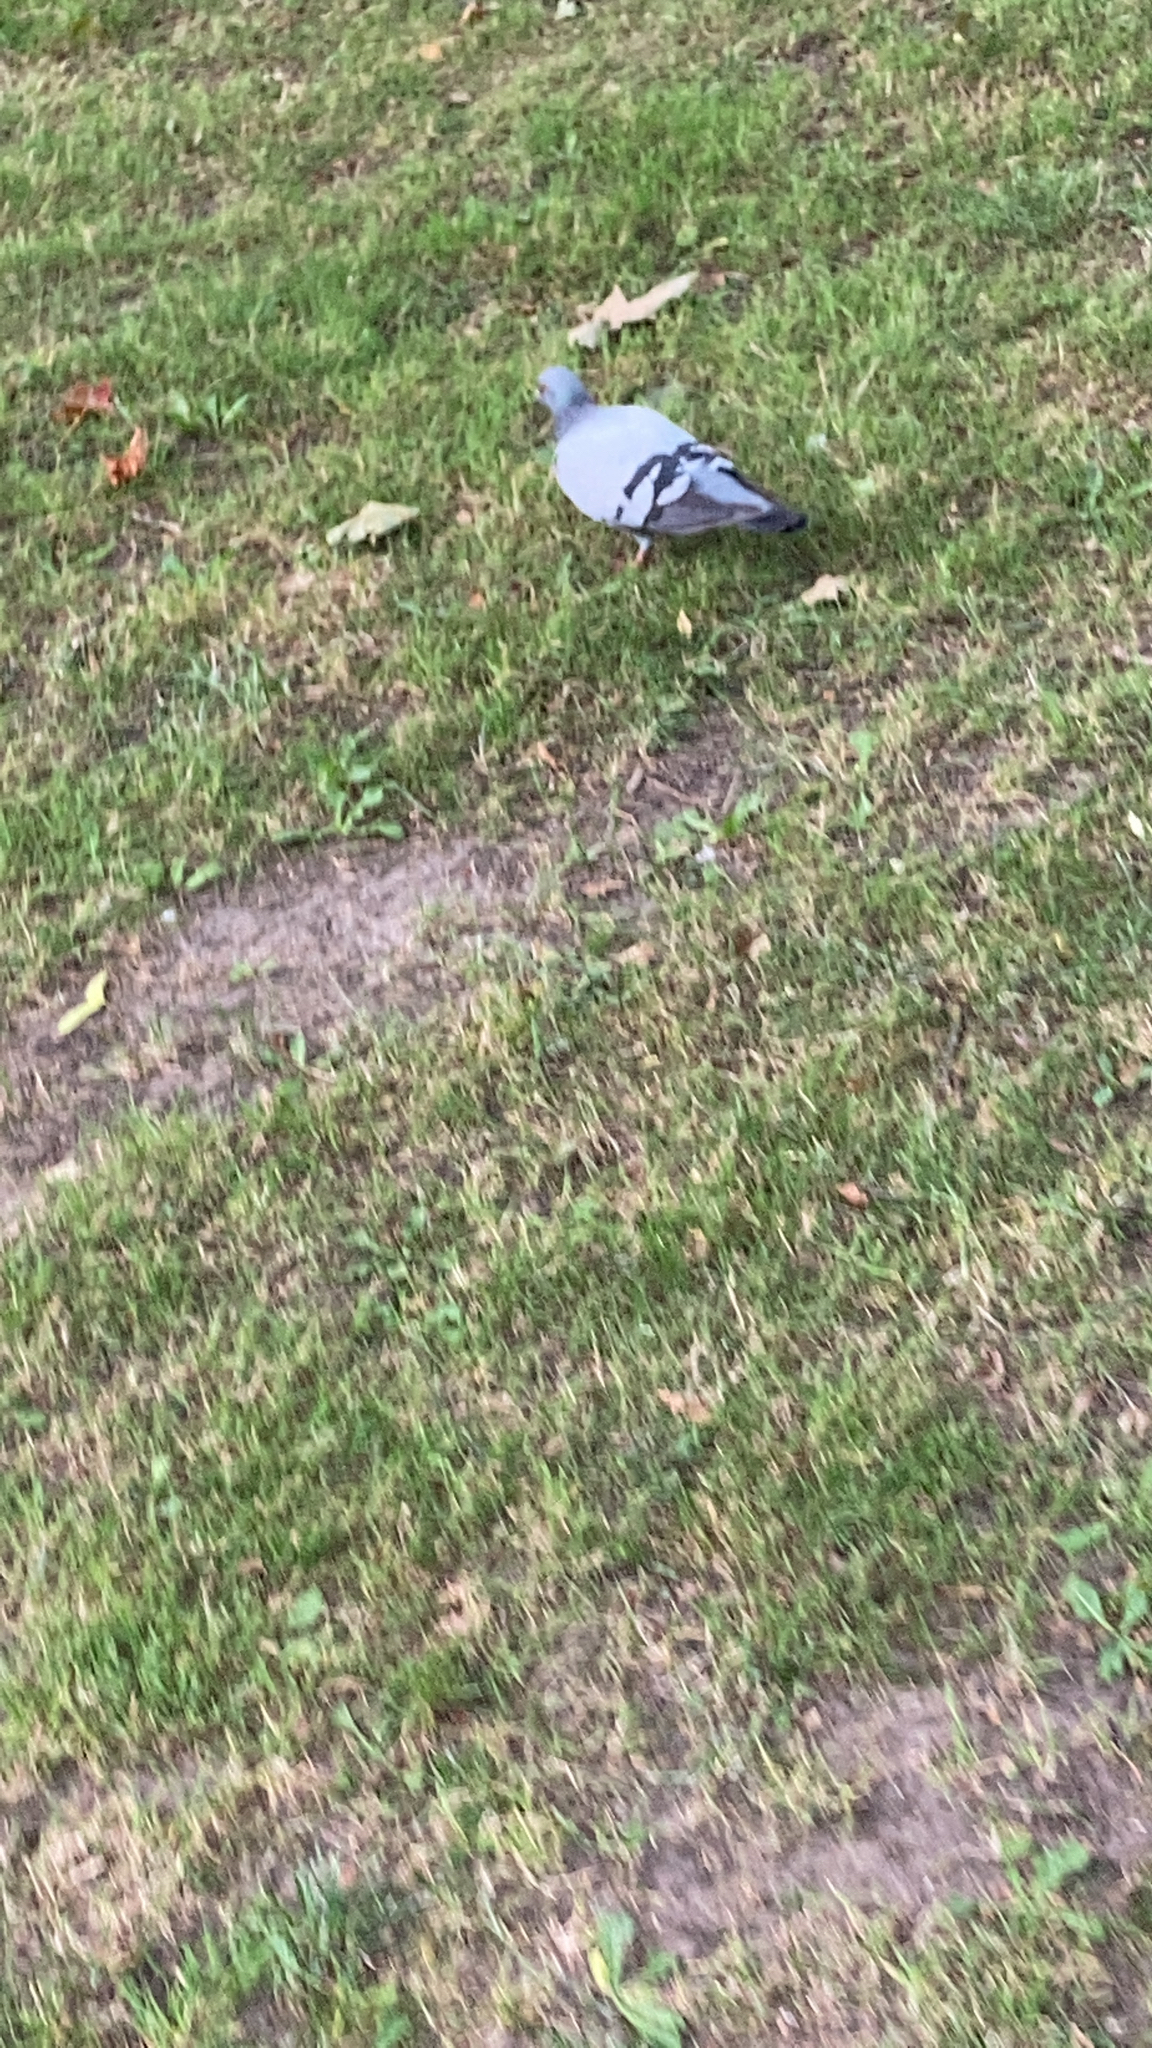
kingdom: Animalia
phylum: Chordata
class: Aves
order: Columbiformes
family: Columbidae
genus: Columba
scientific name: Columba livia
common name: Rock pigeon
